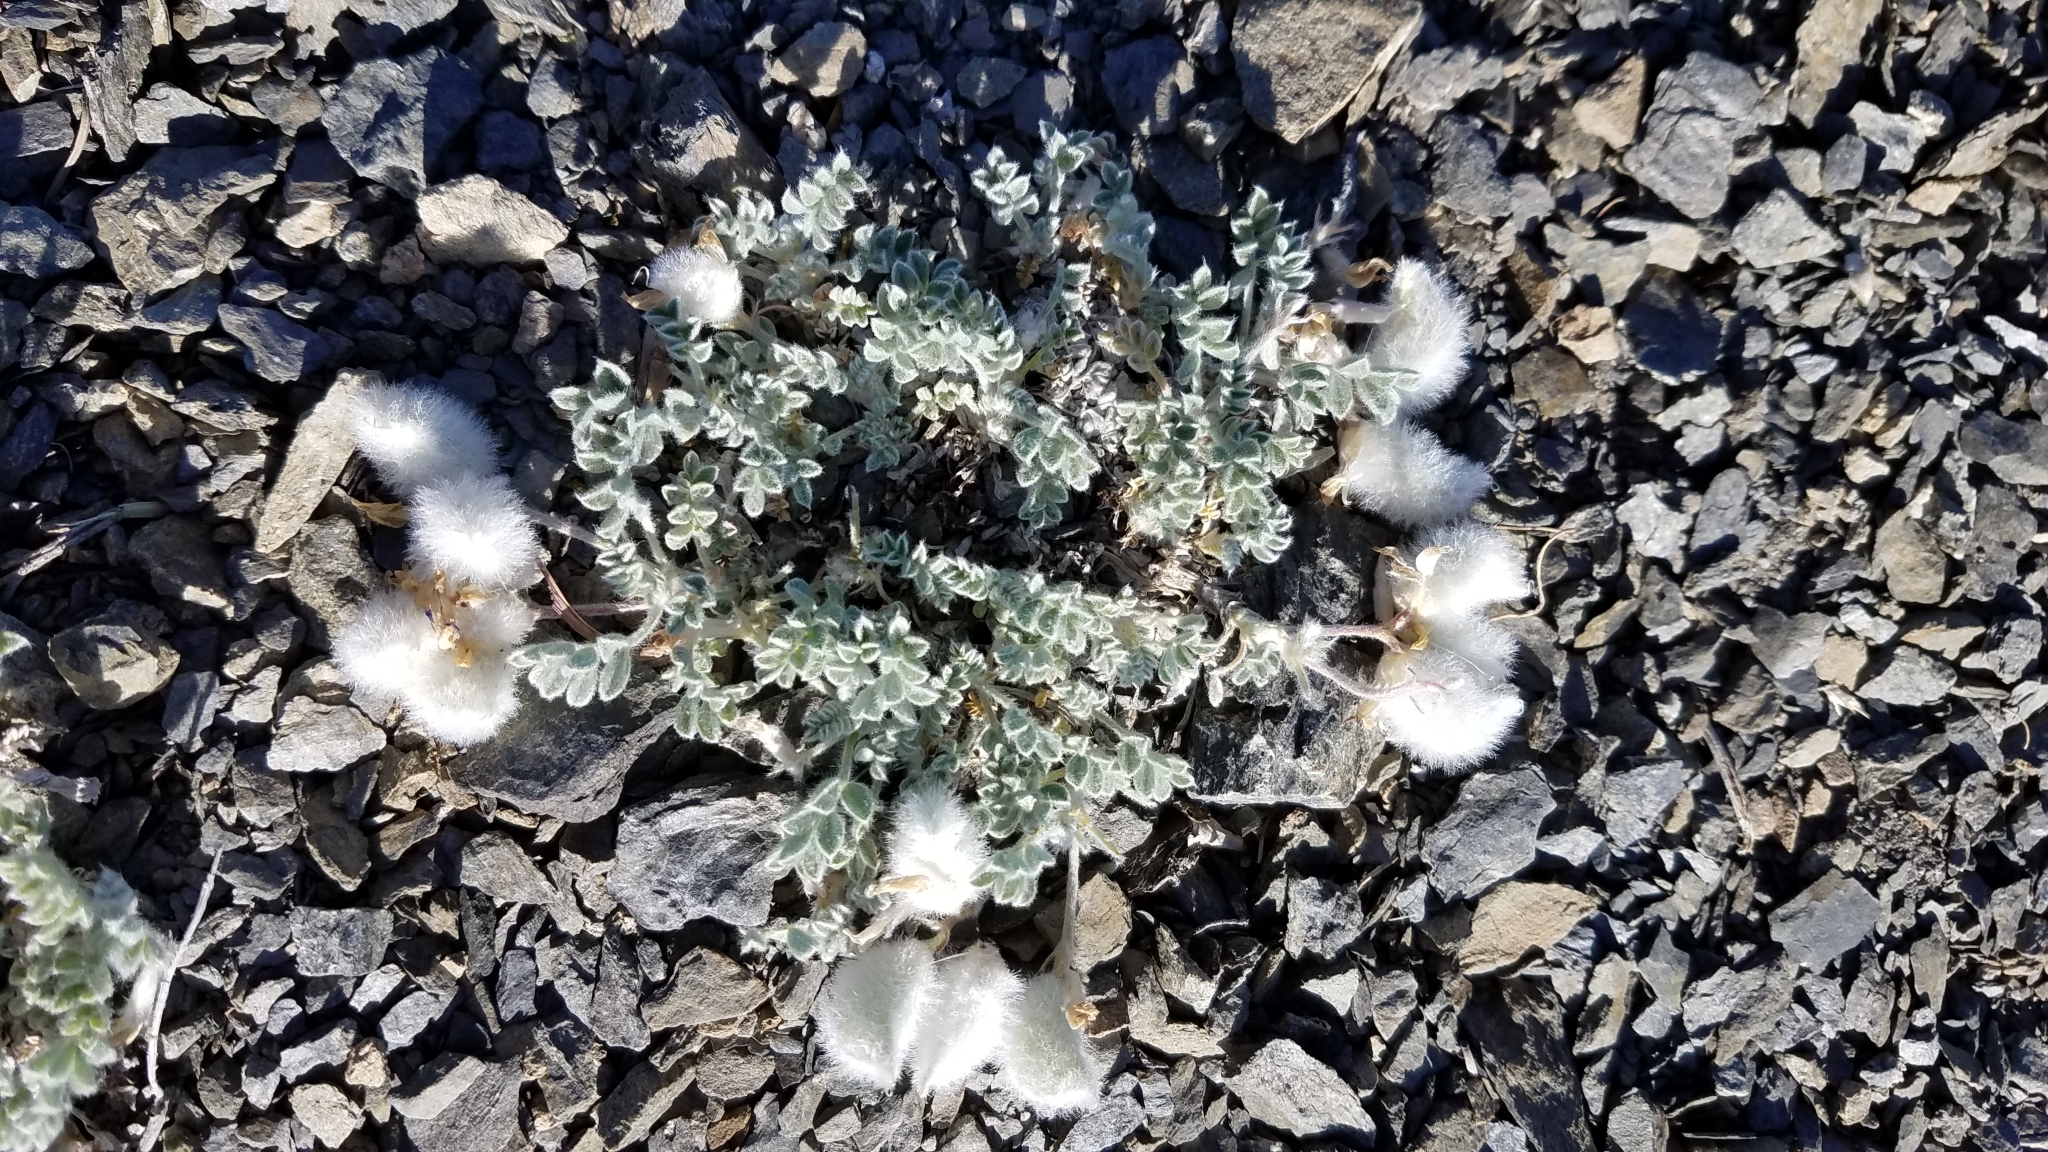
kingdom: Plantae
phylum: Tracheophyta
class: Magnoliopsida
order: Fabales
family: Fabaceae
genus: Astragalus
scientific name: Astragalus purshii
